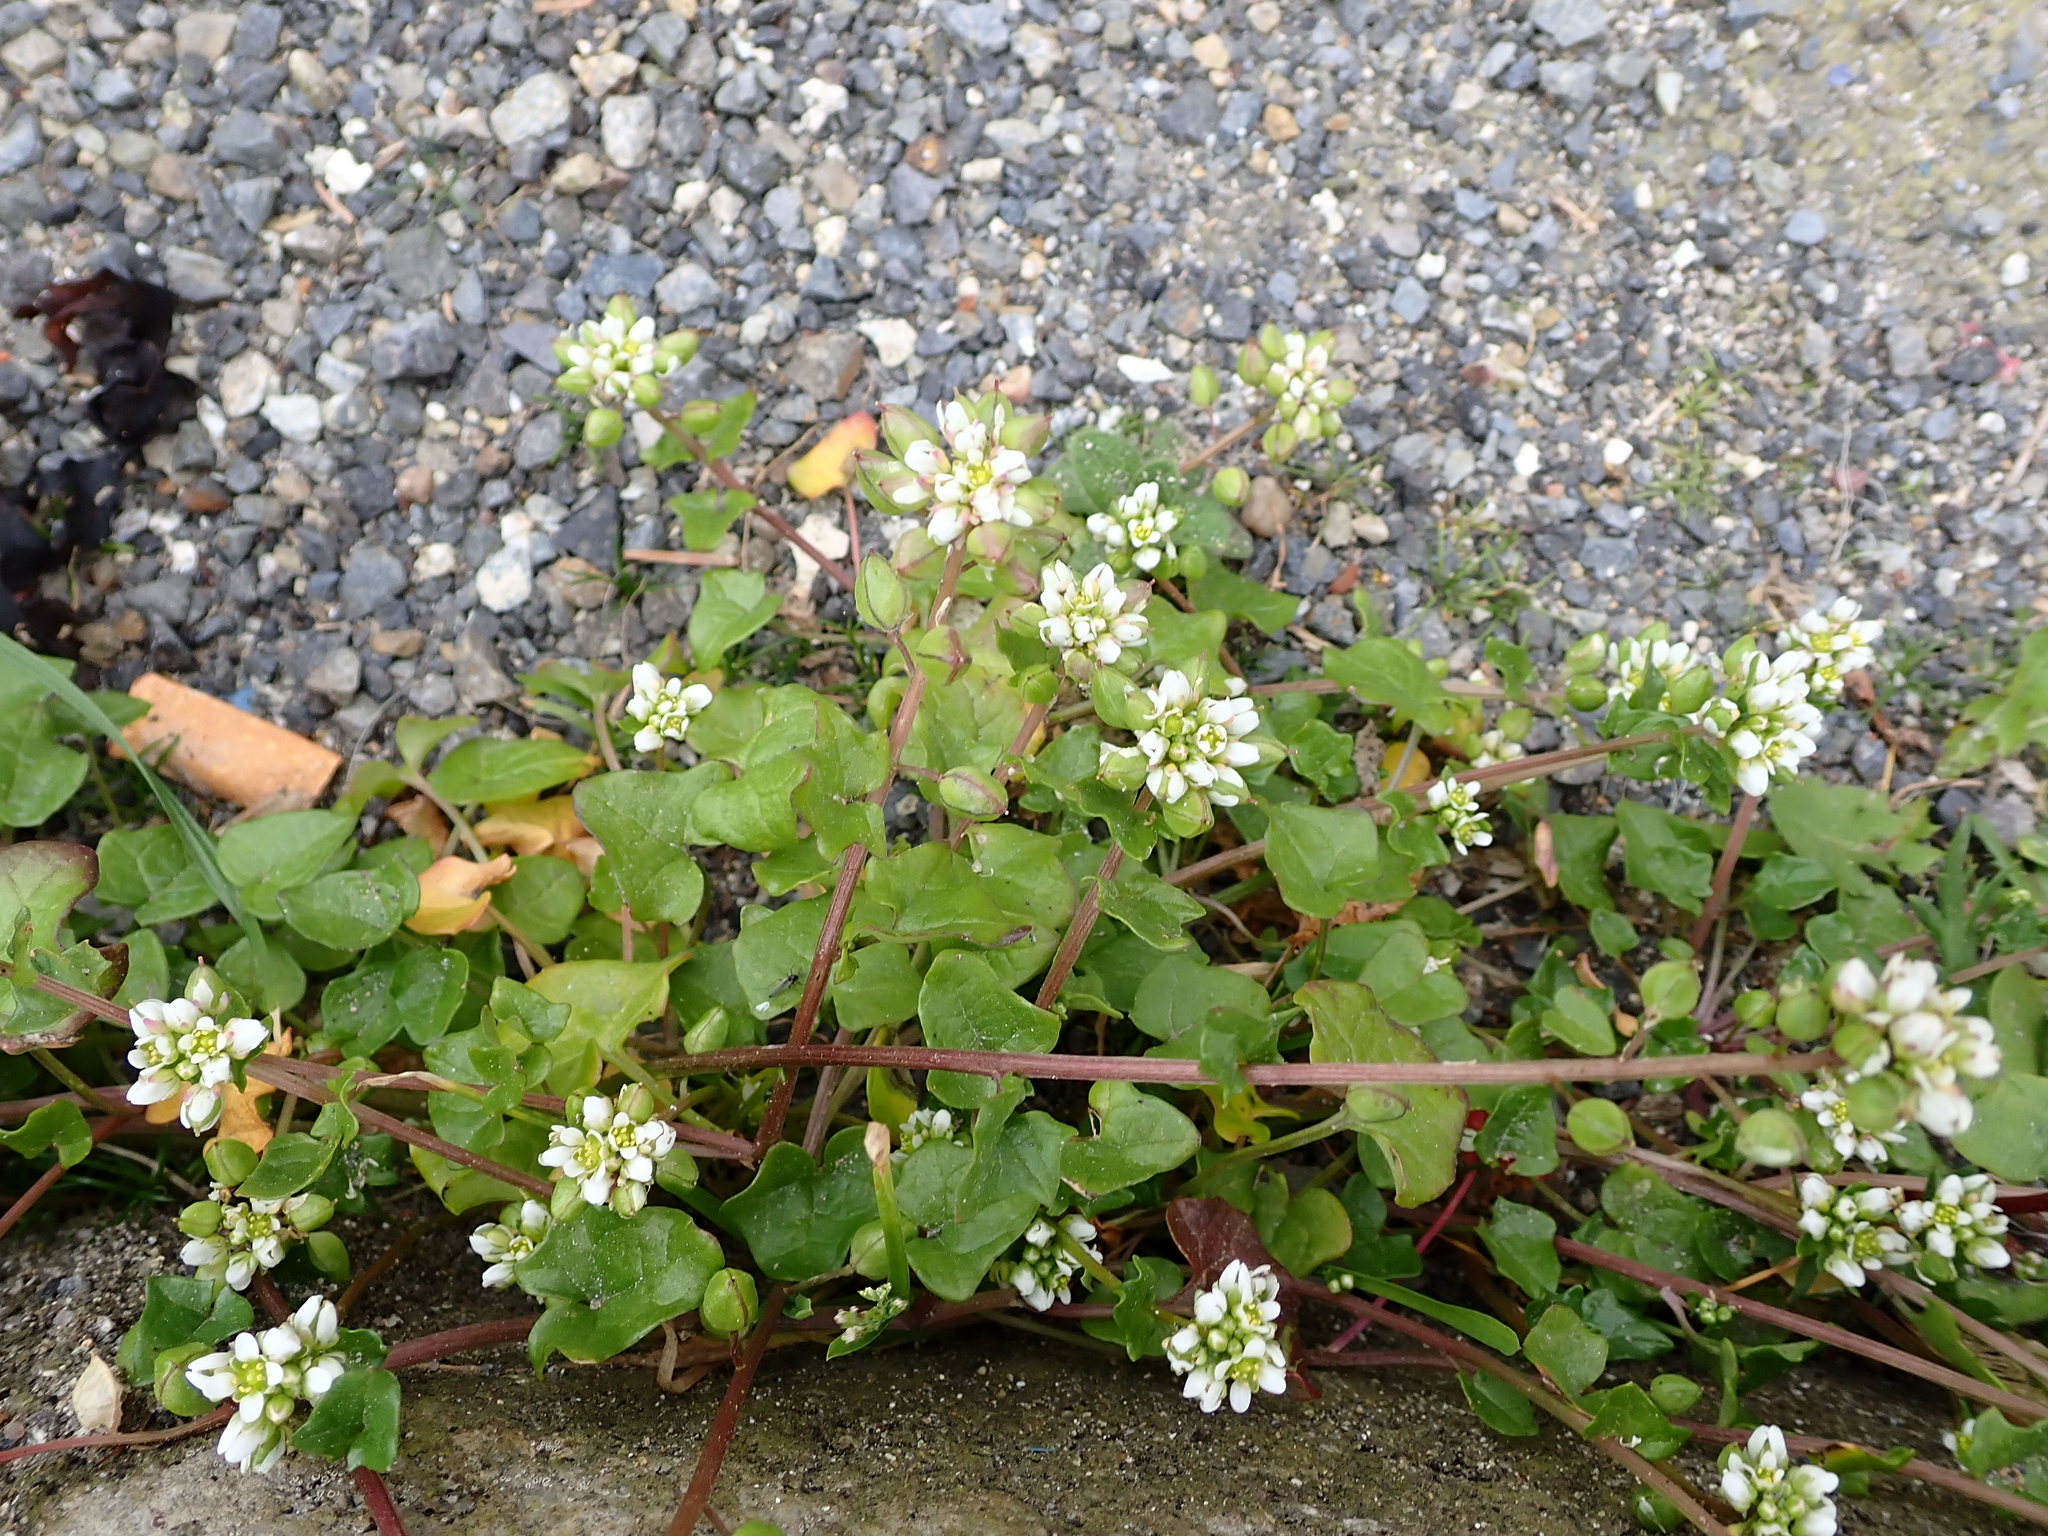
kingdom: Plantae
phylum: Tracheophyta
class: Magnoliopsida
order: Brassicales
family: Brassicaceae
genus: Cochlearia
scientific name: Cochlearia danica
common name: Early scurvygrass
